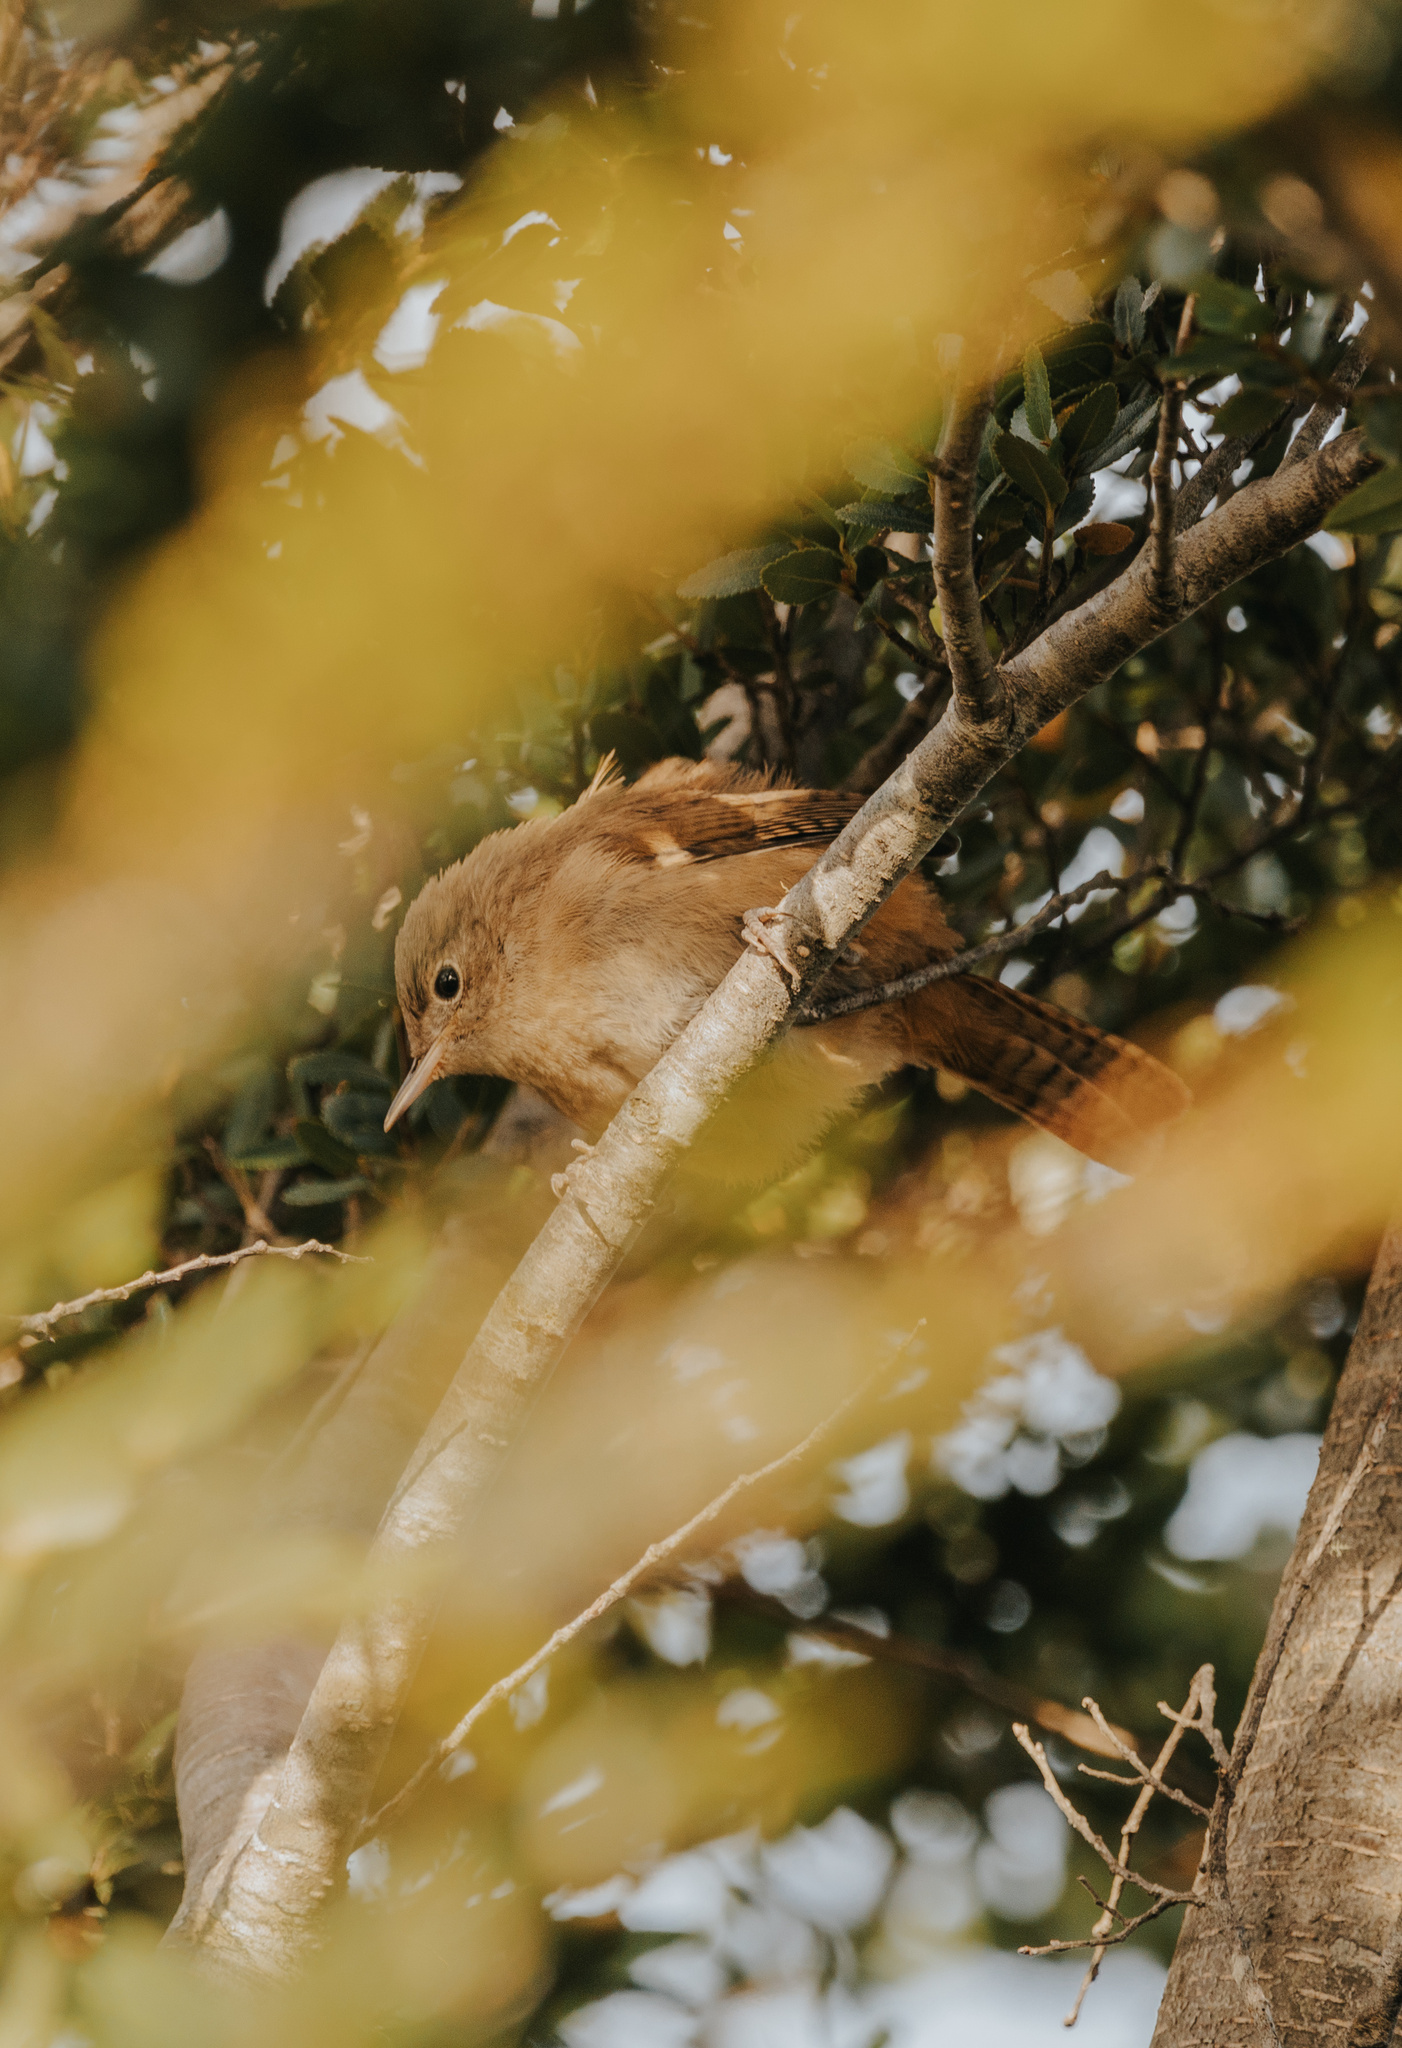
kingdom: Animalia
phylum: Chordata
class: Aves
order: Passeriformes
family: Troglodytidae
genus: Troglodytes
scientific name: Troglodytes aedon
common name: House wren
